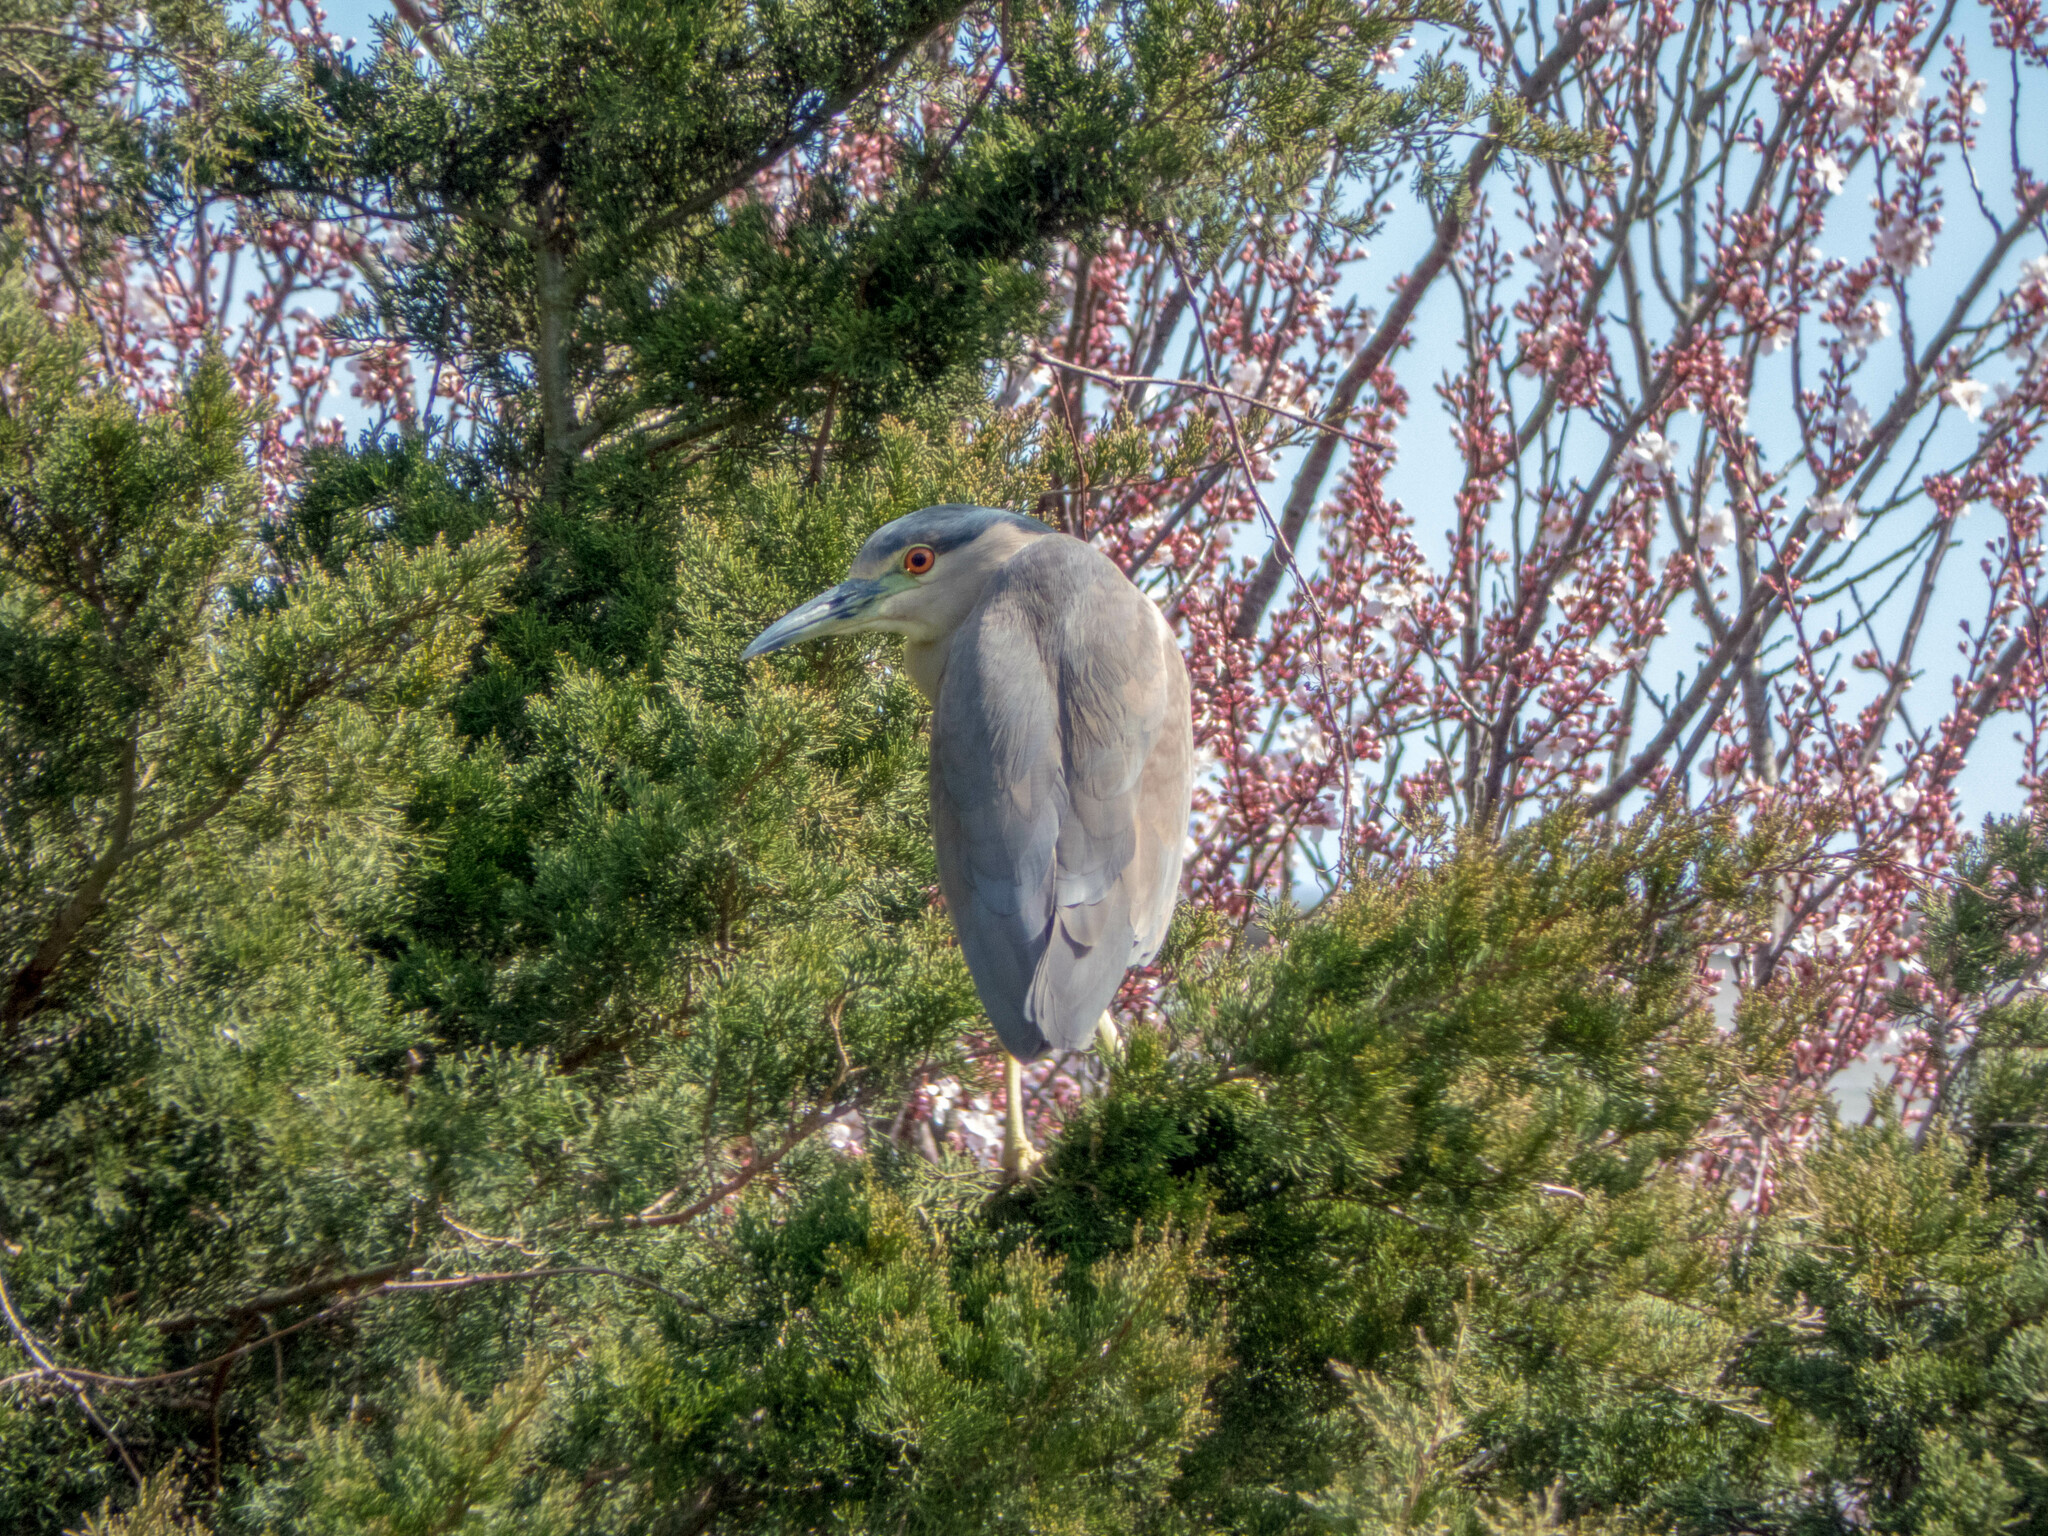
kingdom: Animalia
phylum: Chordata
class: Aves
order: Pelecaniformes
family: Ardeidae
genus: Nycticorax
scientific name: Nycticorax nycticorax
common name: Black-crowned night heron
